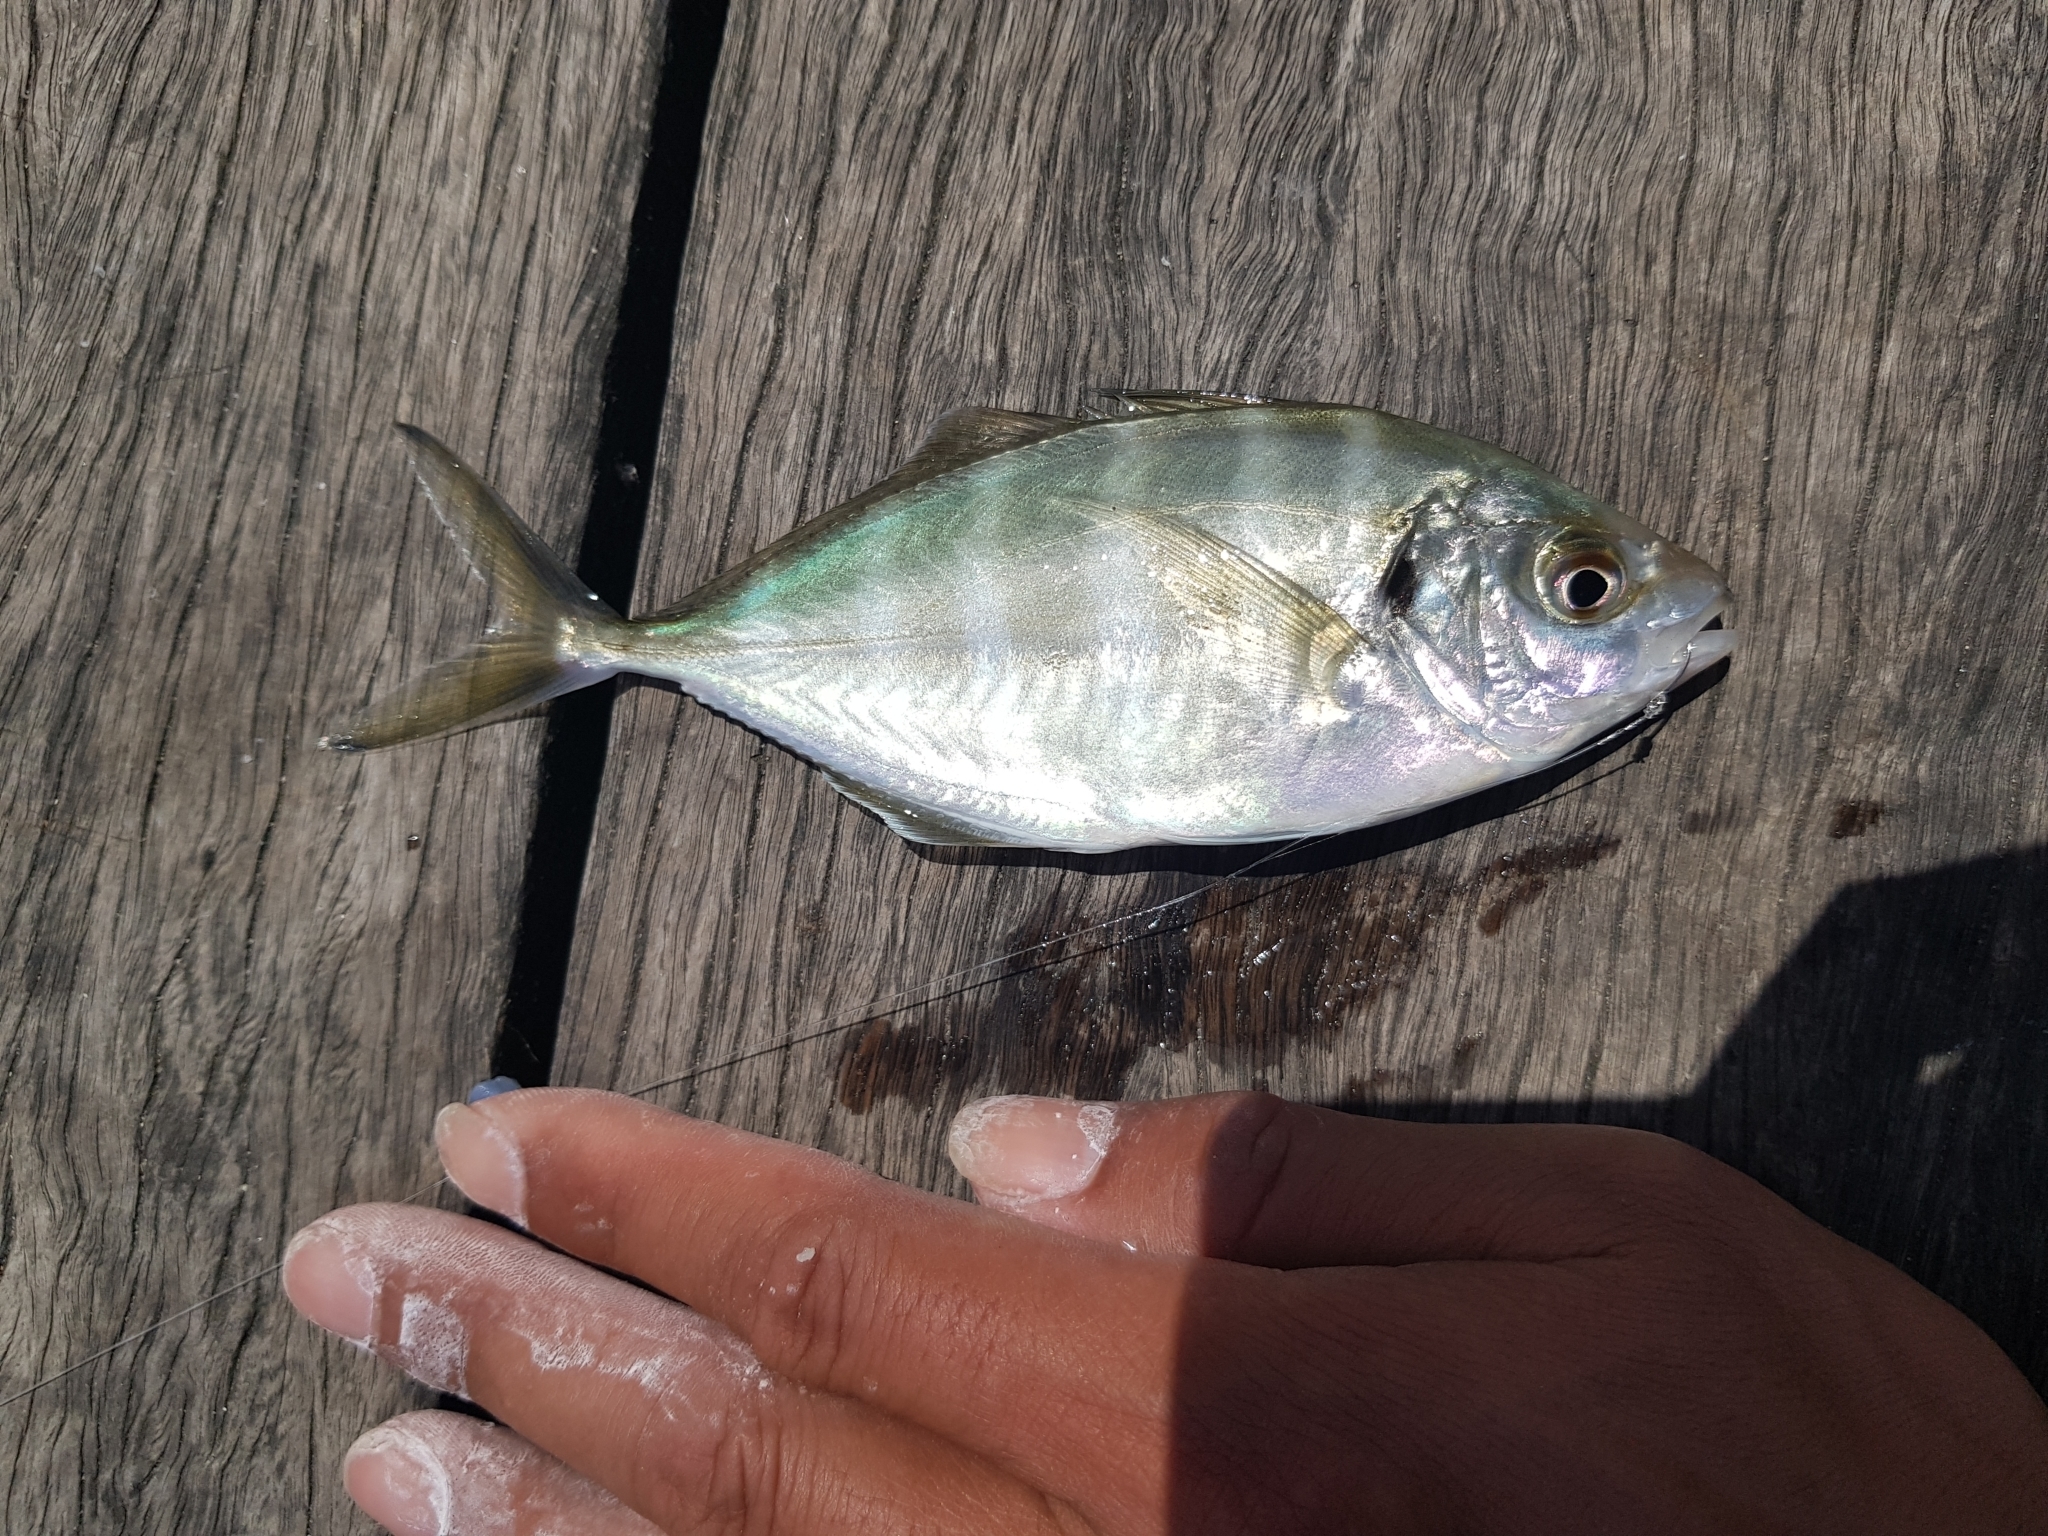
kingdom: Animalia
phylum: Chordata
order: Perciformes
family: Carangidae
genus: Pseudocaranx
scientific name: Pseudocaranx dentex
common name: White trevally
